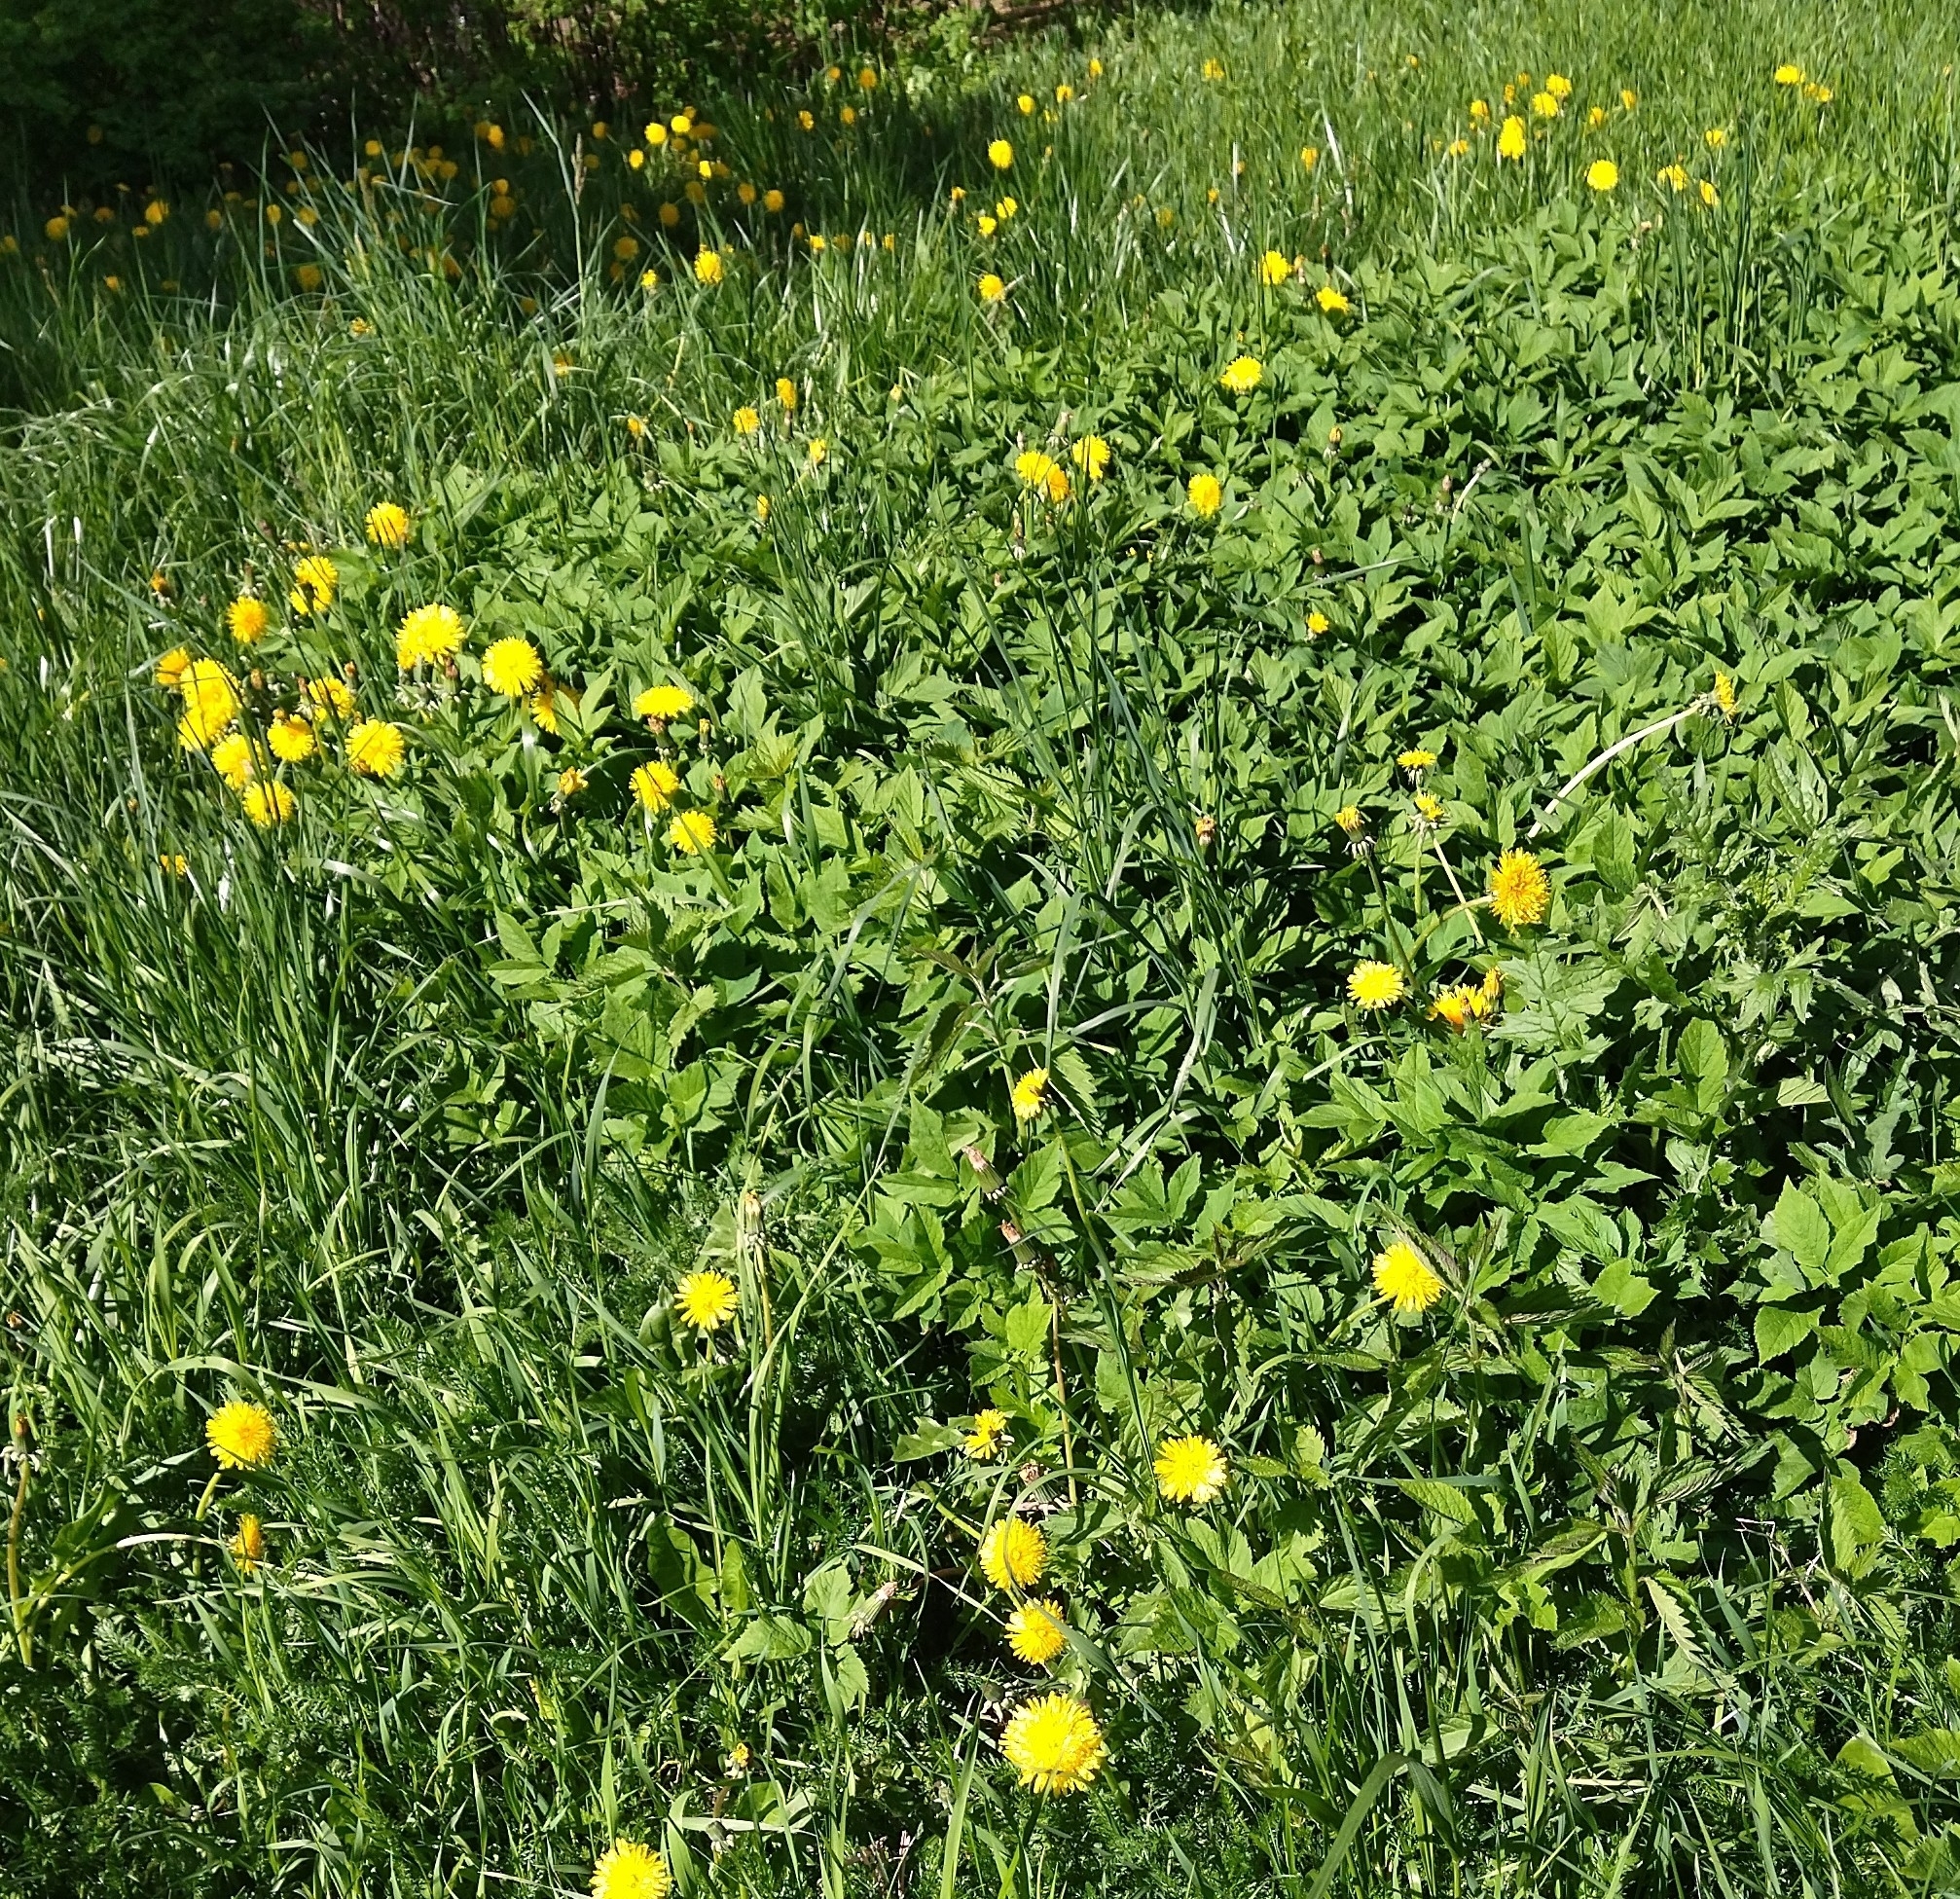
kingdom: Plantae
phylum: Tracheophyta
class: Magnoliopsida
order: Asterales
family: Asteraceae
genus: Taraxacum
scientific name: Taraxacum officinale
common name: Common dandelion
